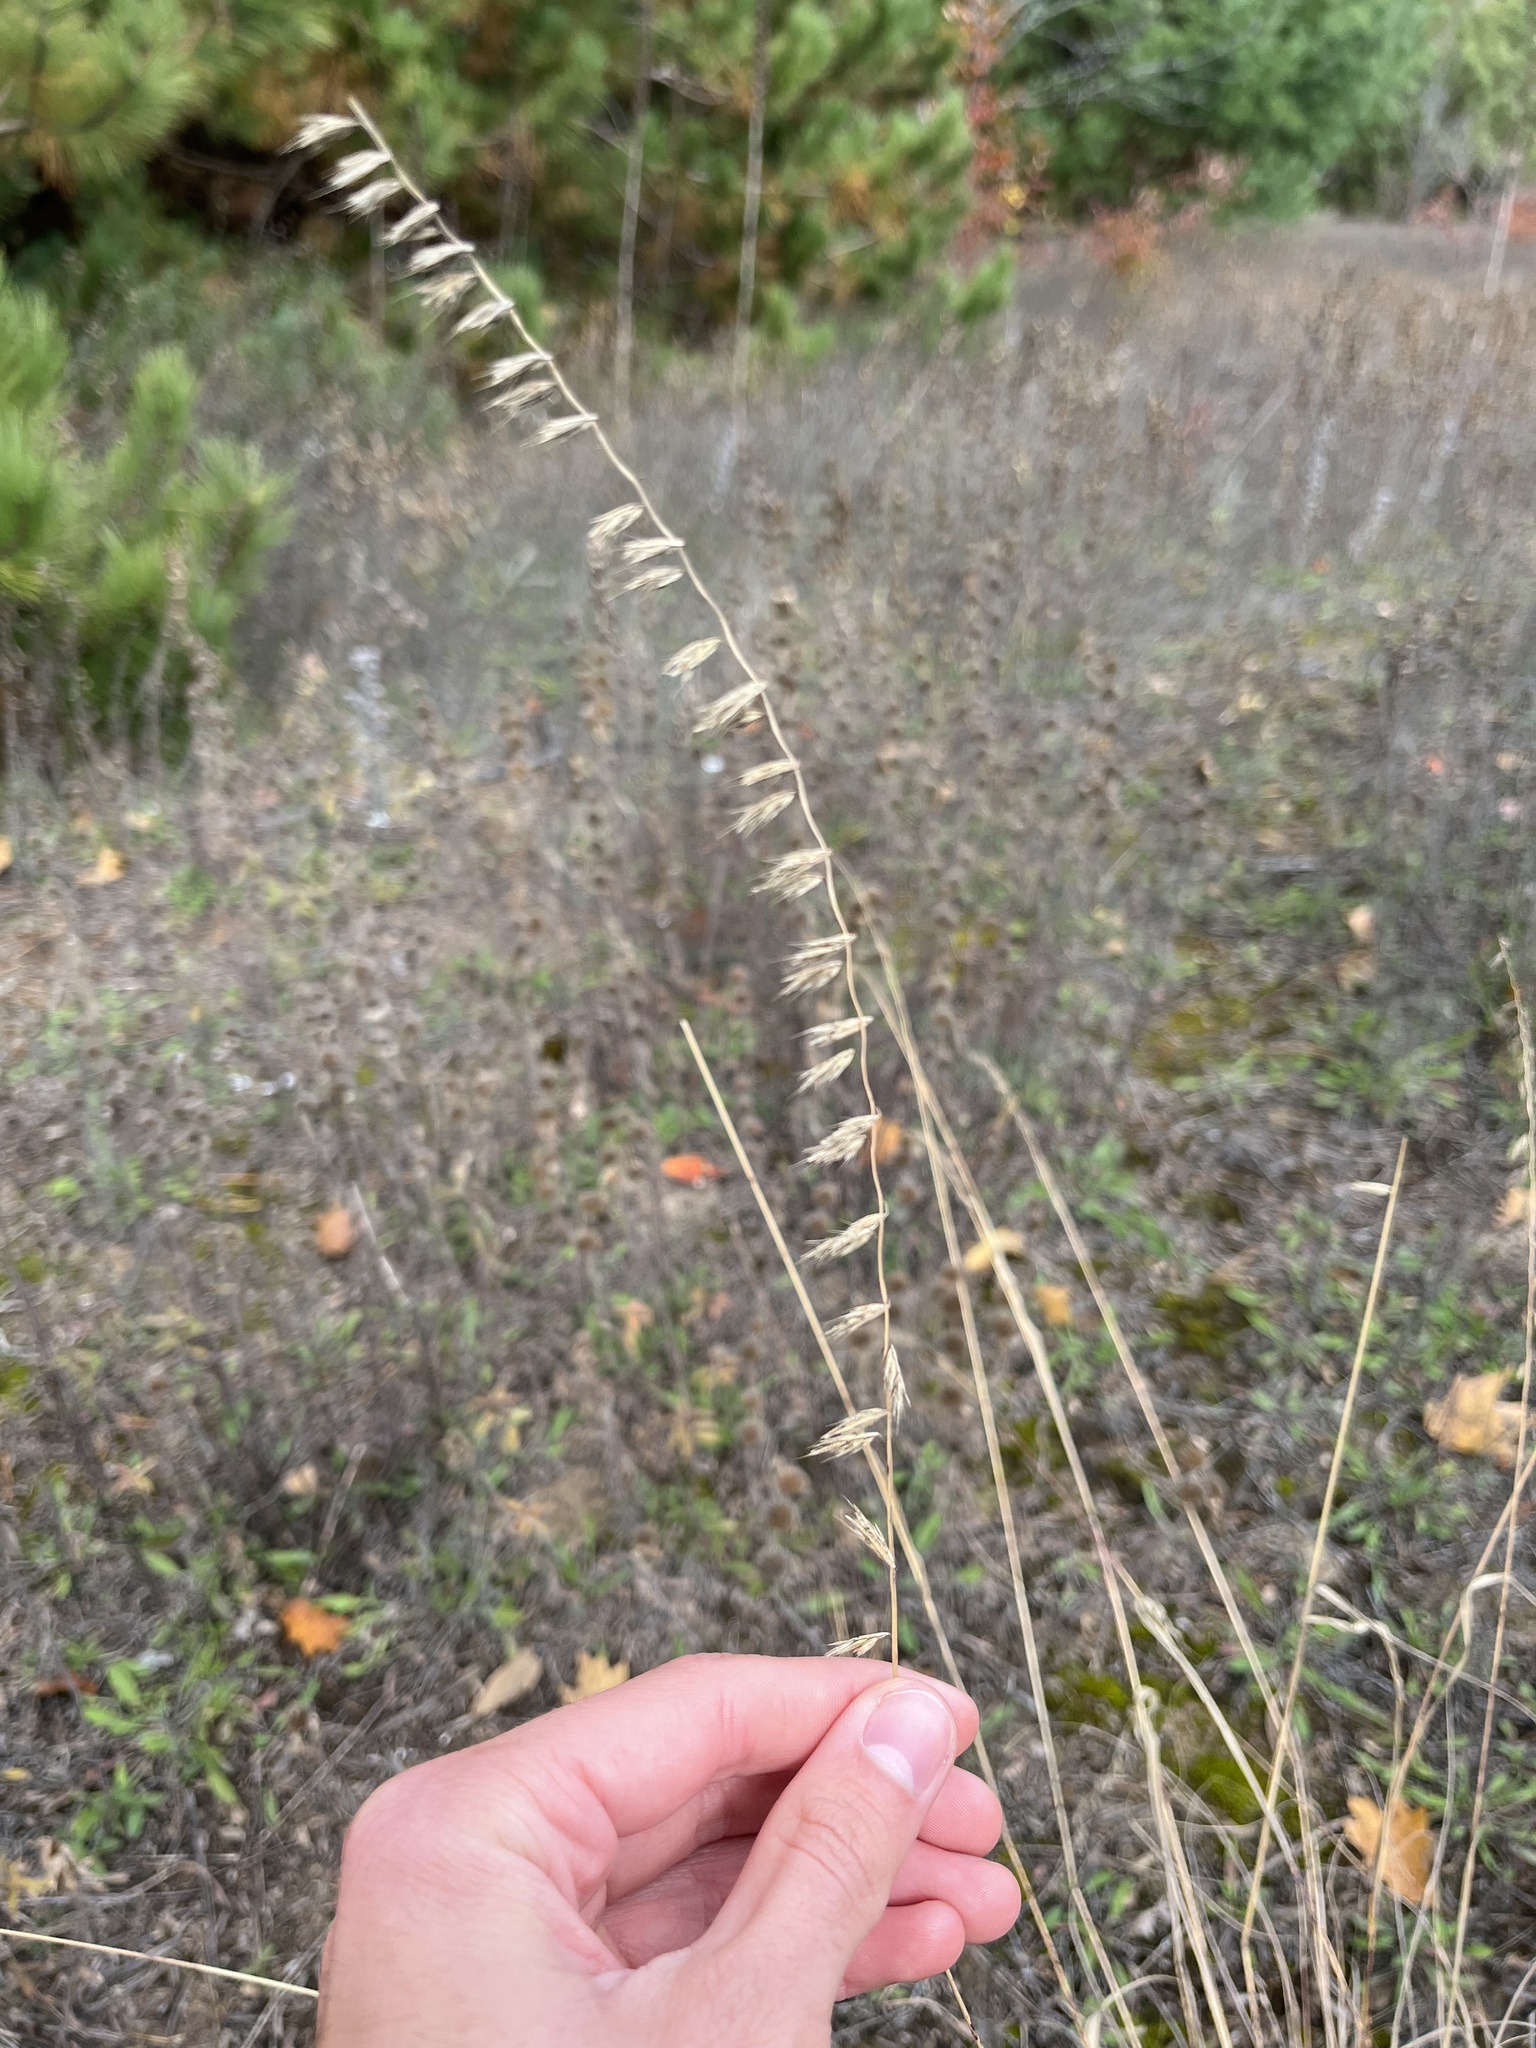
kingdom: Plantae
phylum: Tracheophyta
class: Liliopsida
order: Poales
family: Poaceae
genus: Bouteloua
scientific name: Bouteloua curtipendula
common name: Side-oats grama
